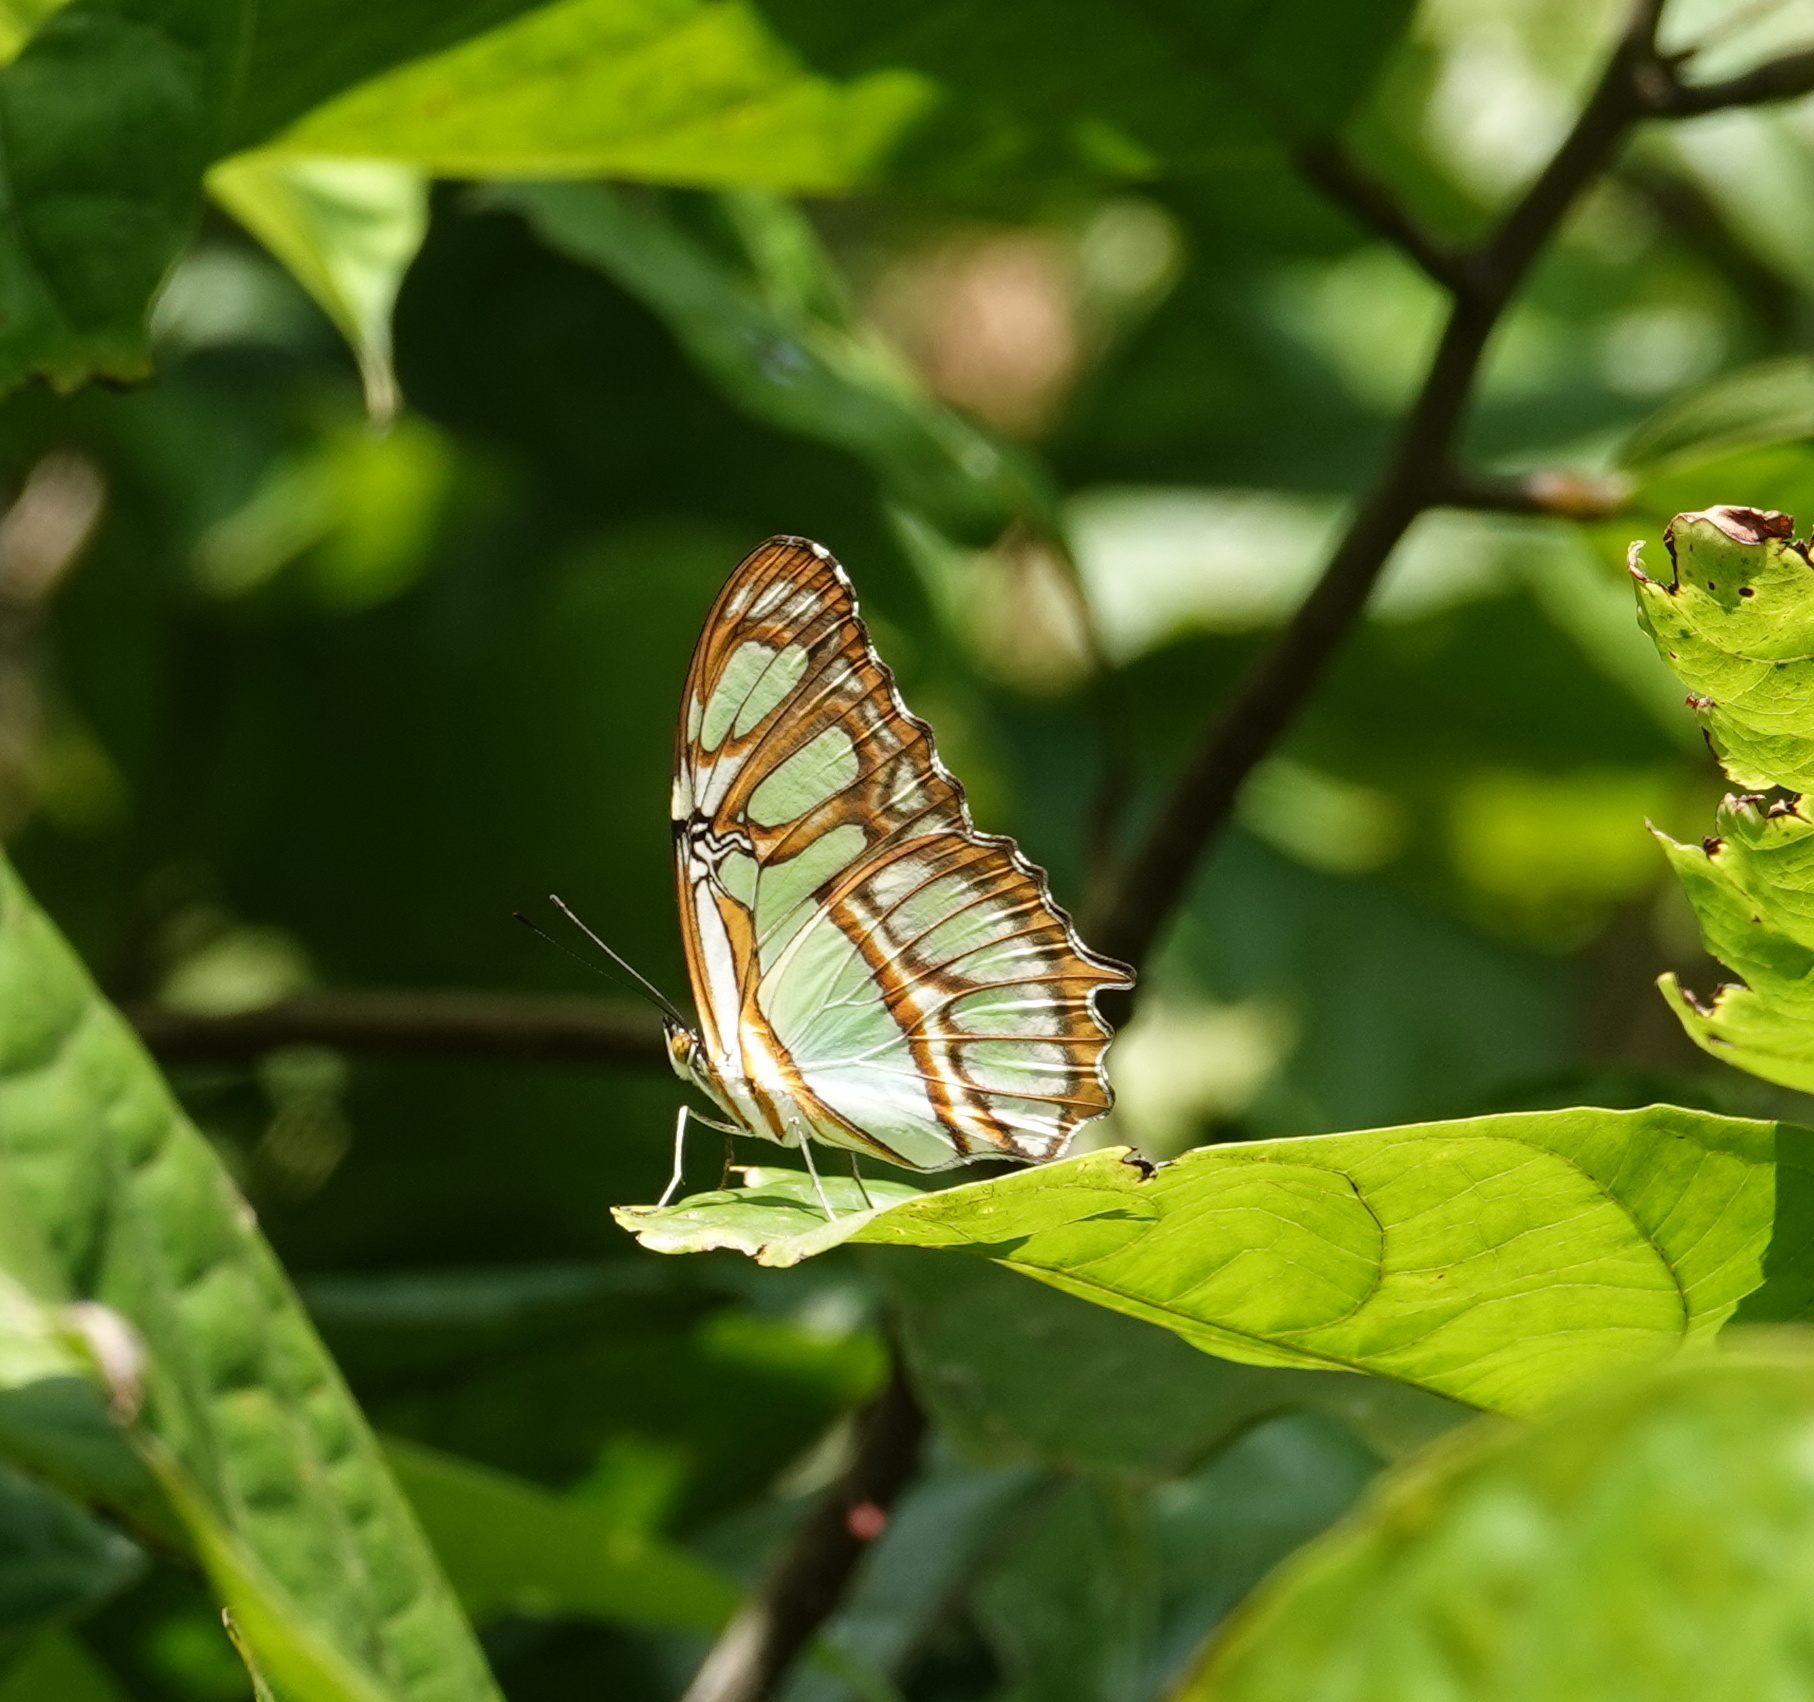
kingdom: Animalia
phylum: Arthropoda
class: Insecta
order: Lepidoptera
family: Nymphalidae
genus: Siproeta
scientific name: Siproeta stelenes
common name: Malachite
